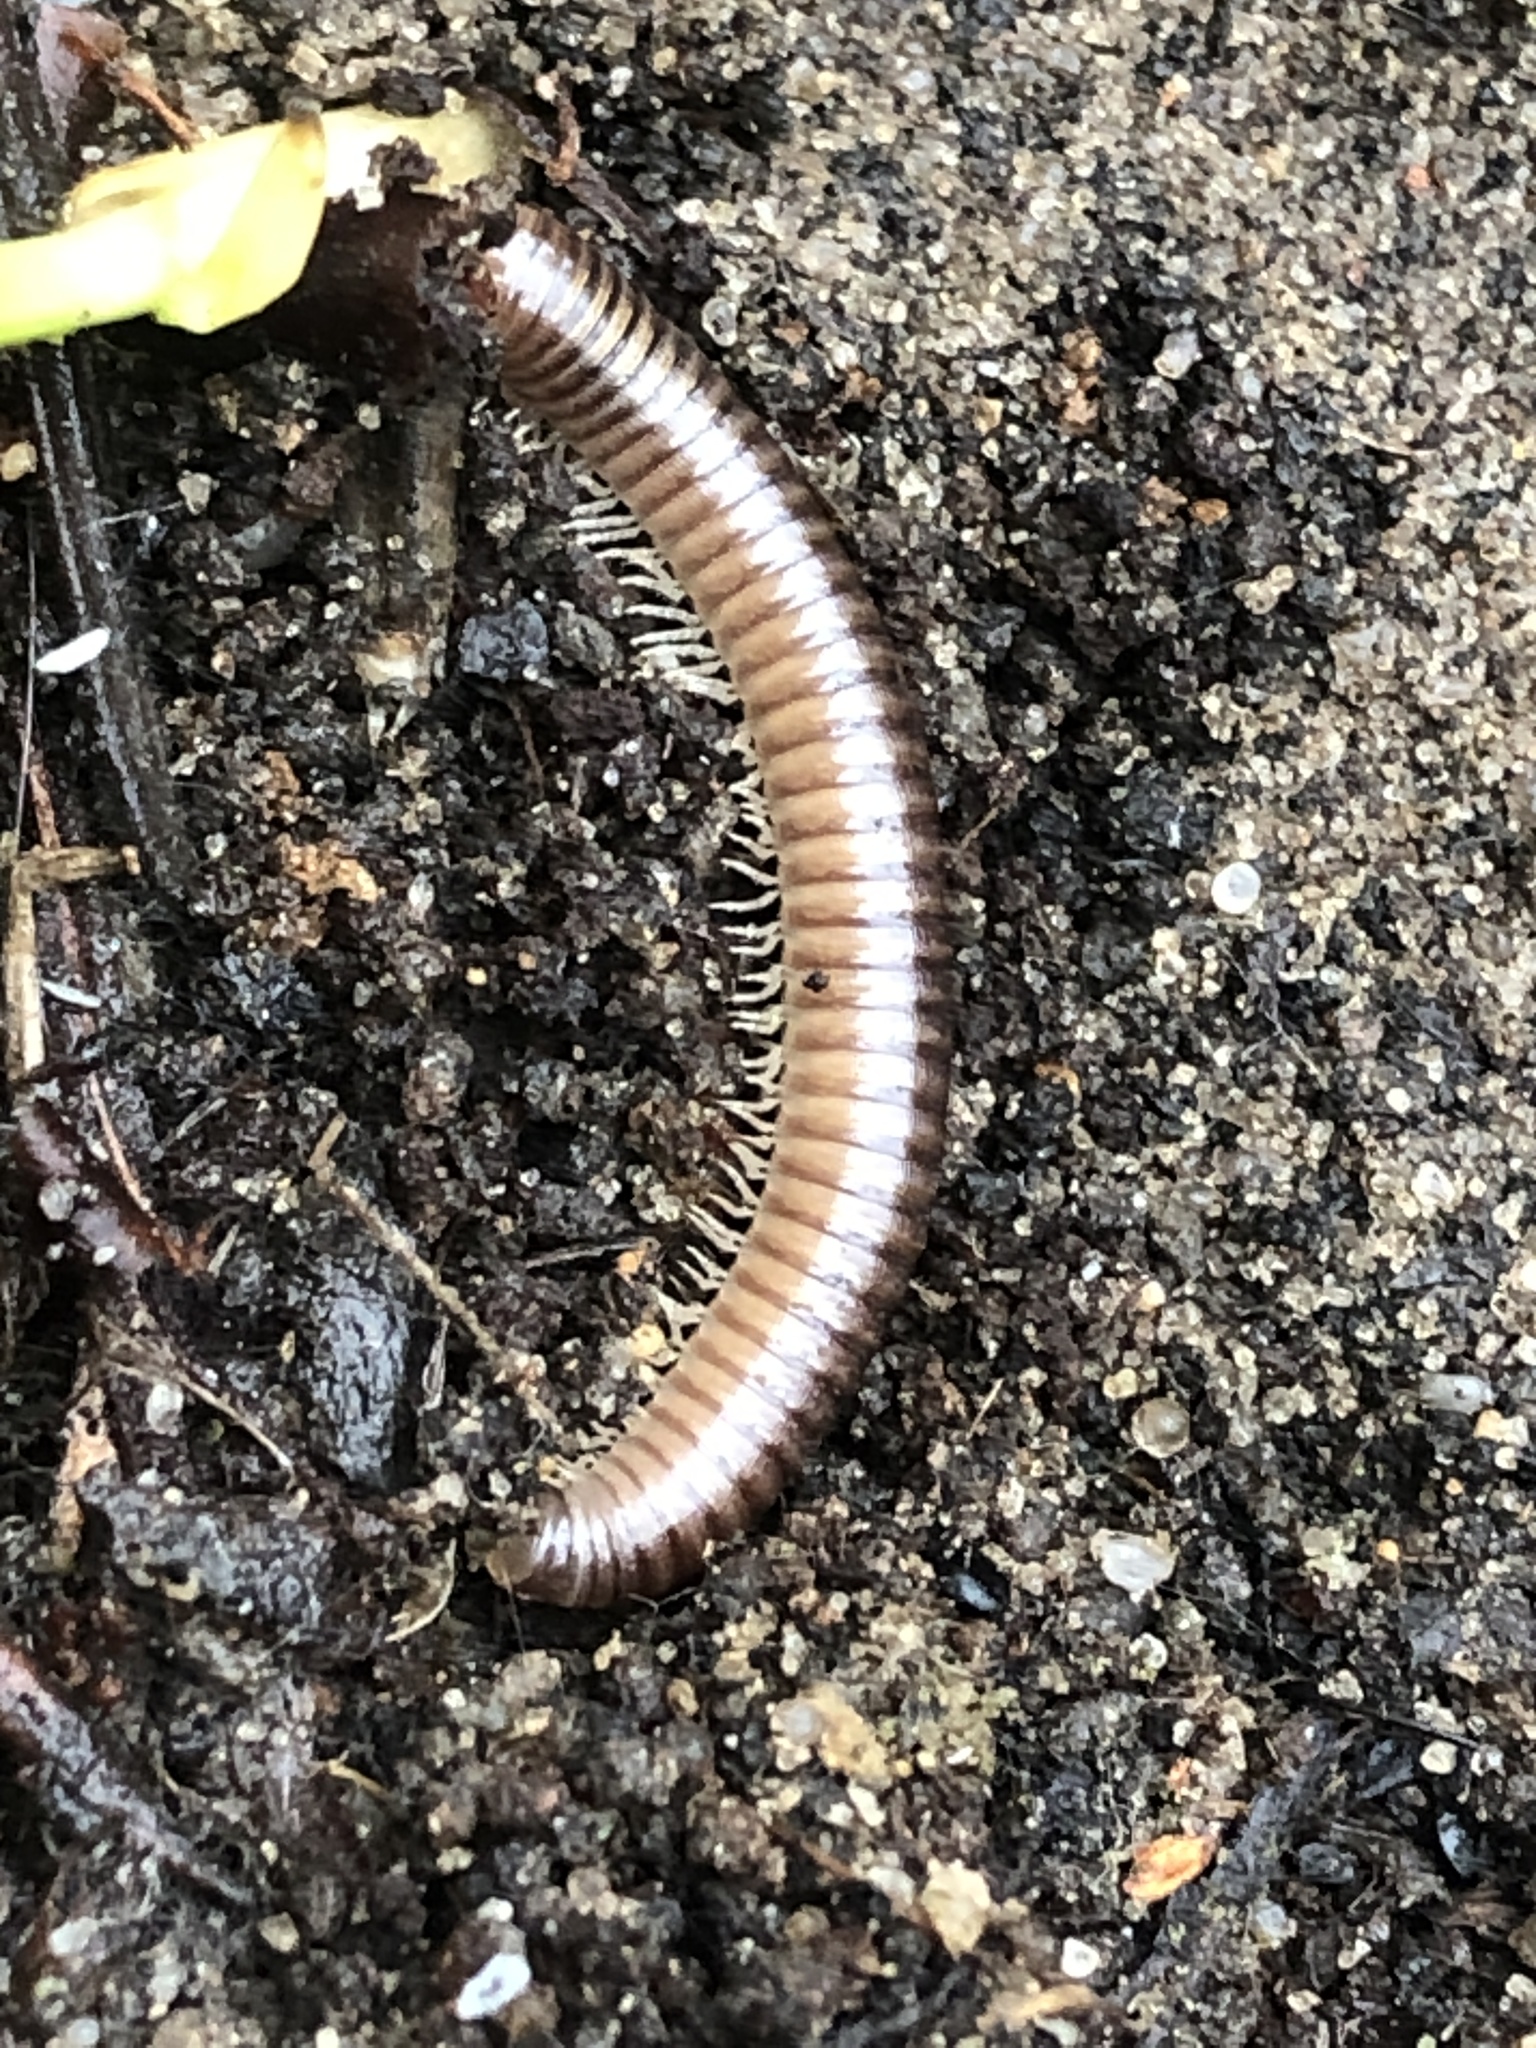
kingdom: Animalia
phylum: Arthropoda
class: Diplopoda
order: Julida
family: Julidae
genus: Cylindroiulus
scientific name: Cylindroiulus caeruleocinctus
